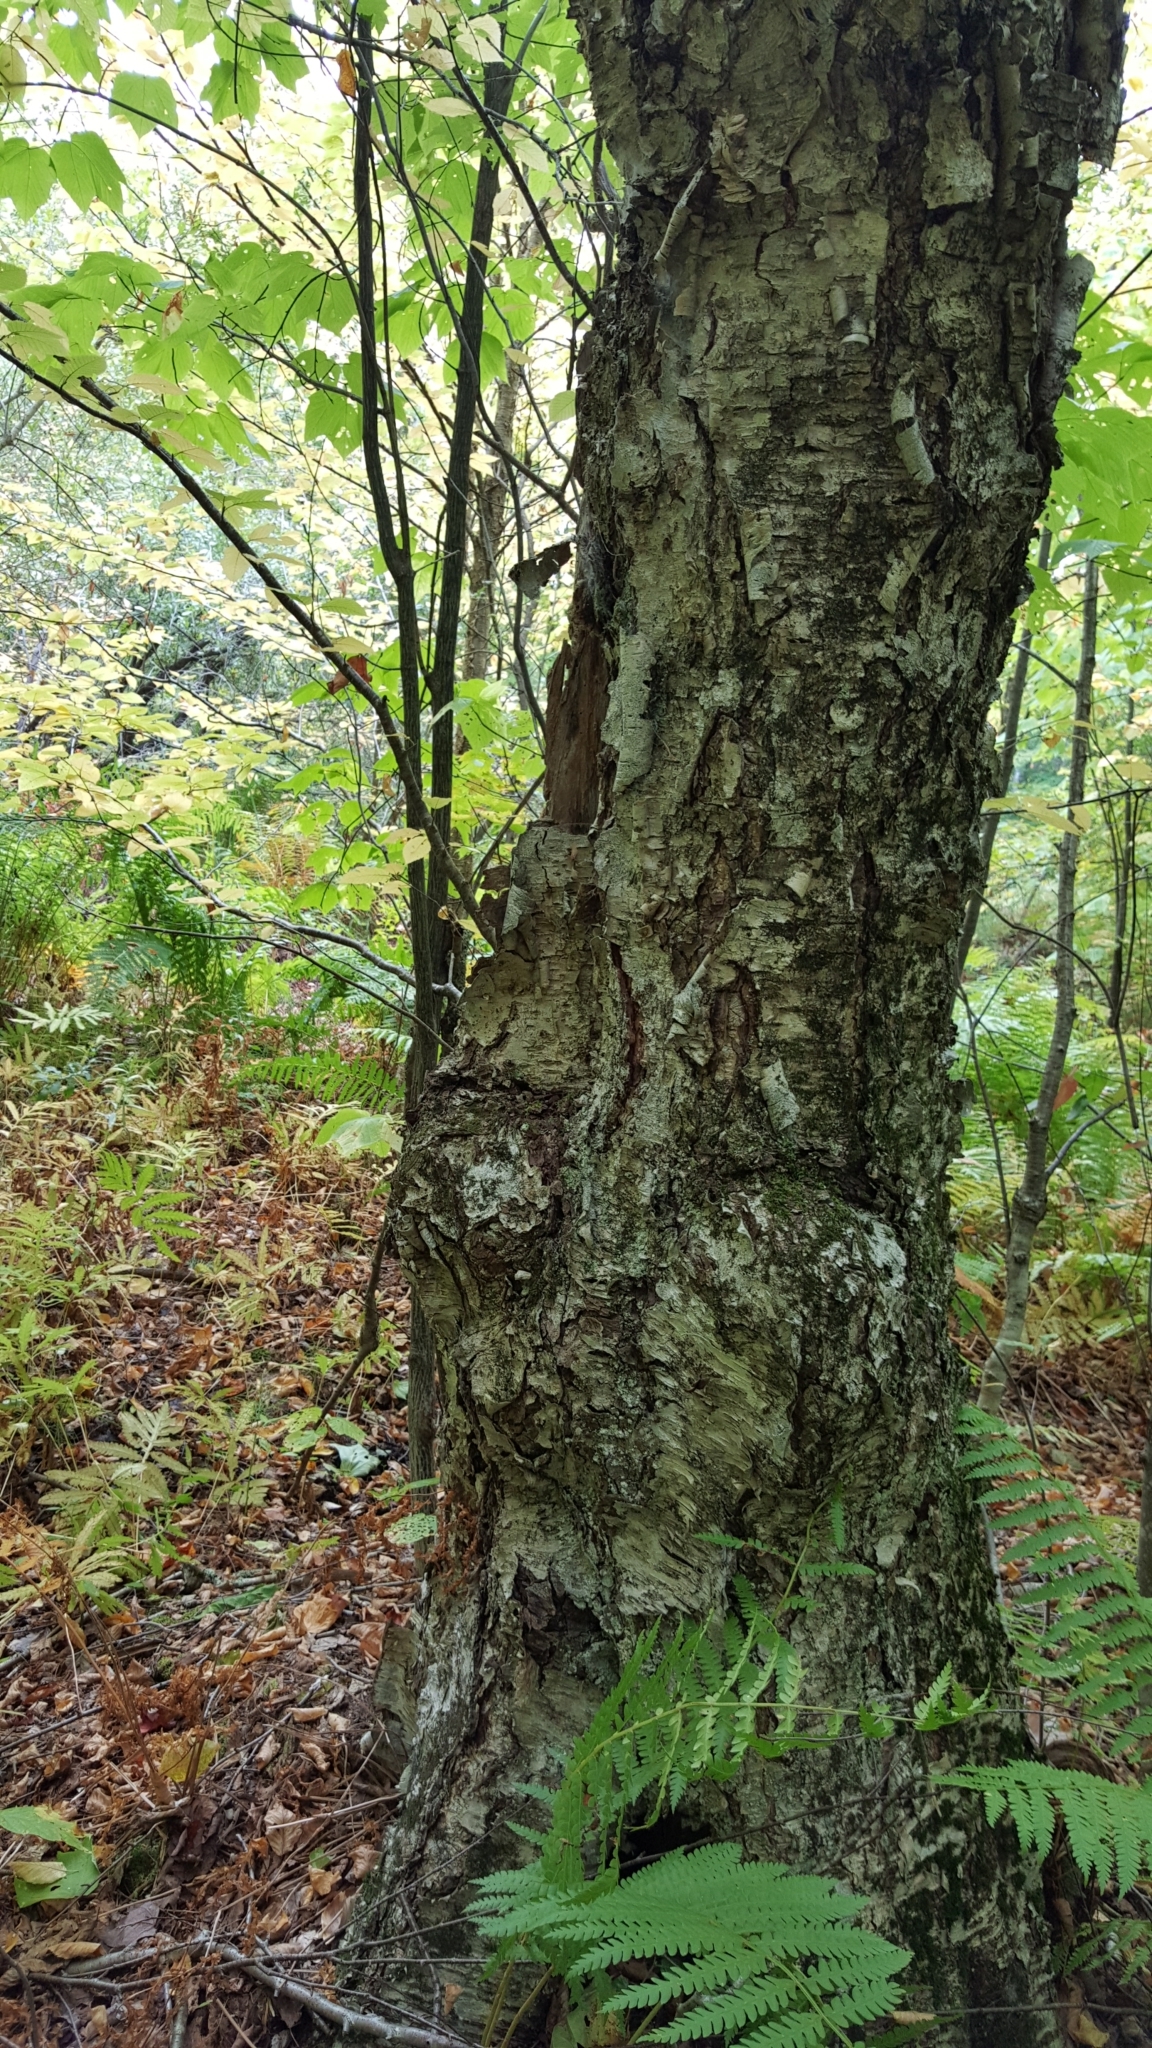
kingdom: Plantae
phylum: Tracheophyta
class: Magnoliopsida
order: Fagales
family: Betulaceae
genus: Betula
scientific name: Betula alleghaniensis
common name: Yellow birch
